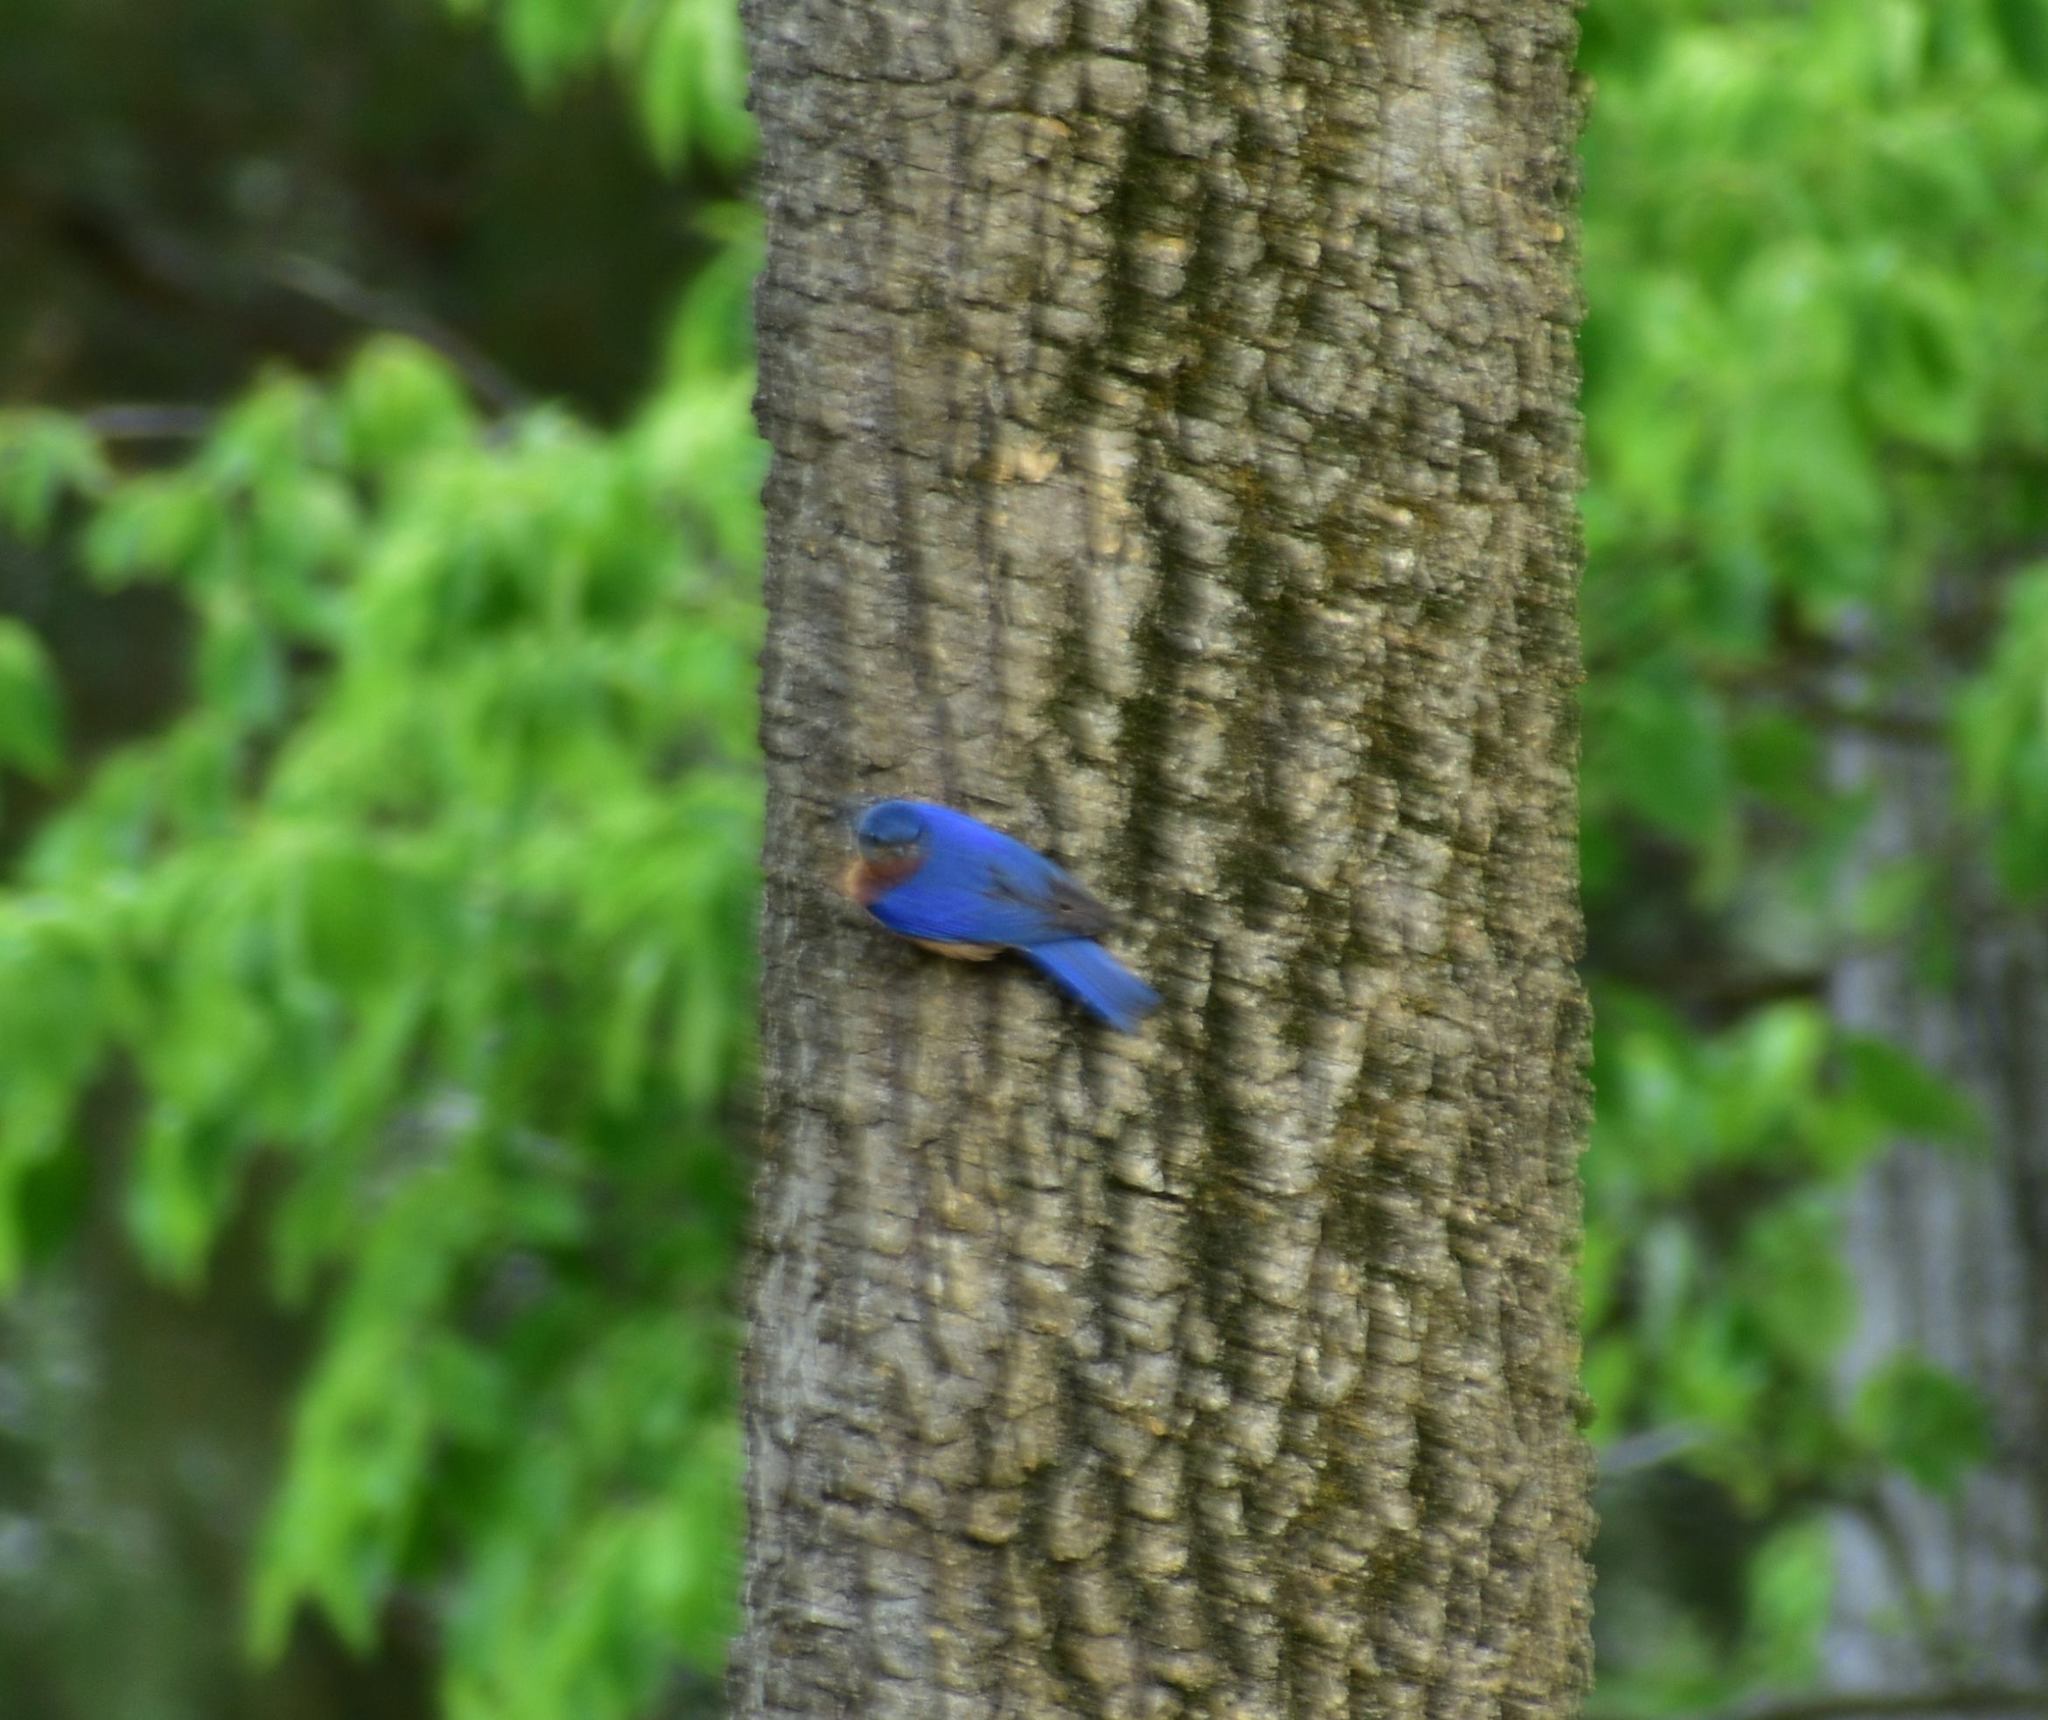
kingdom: Animalia
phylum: Chordata
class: Aves
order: Passeriformes
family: Turdidae
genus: Sialia
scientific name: Sialia sialis
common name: Eastern bluebird
